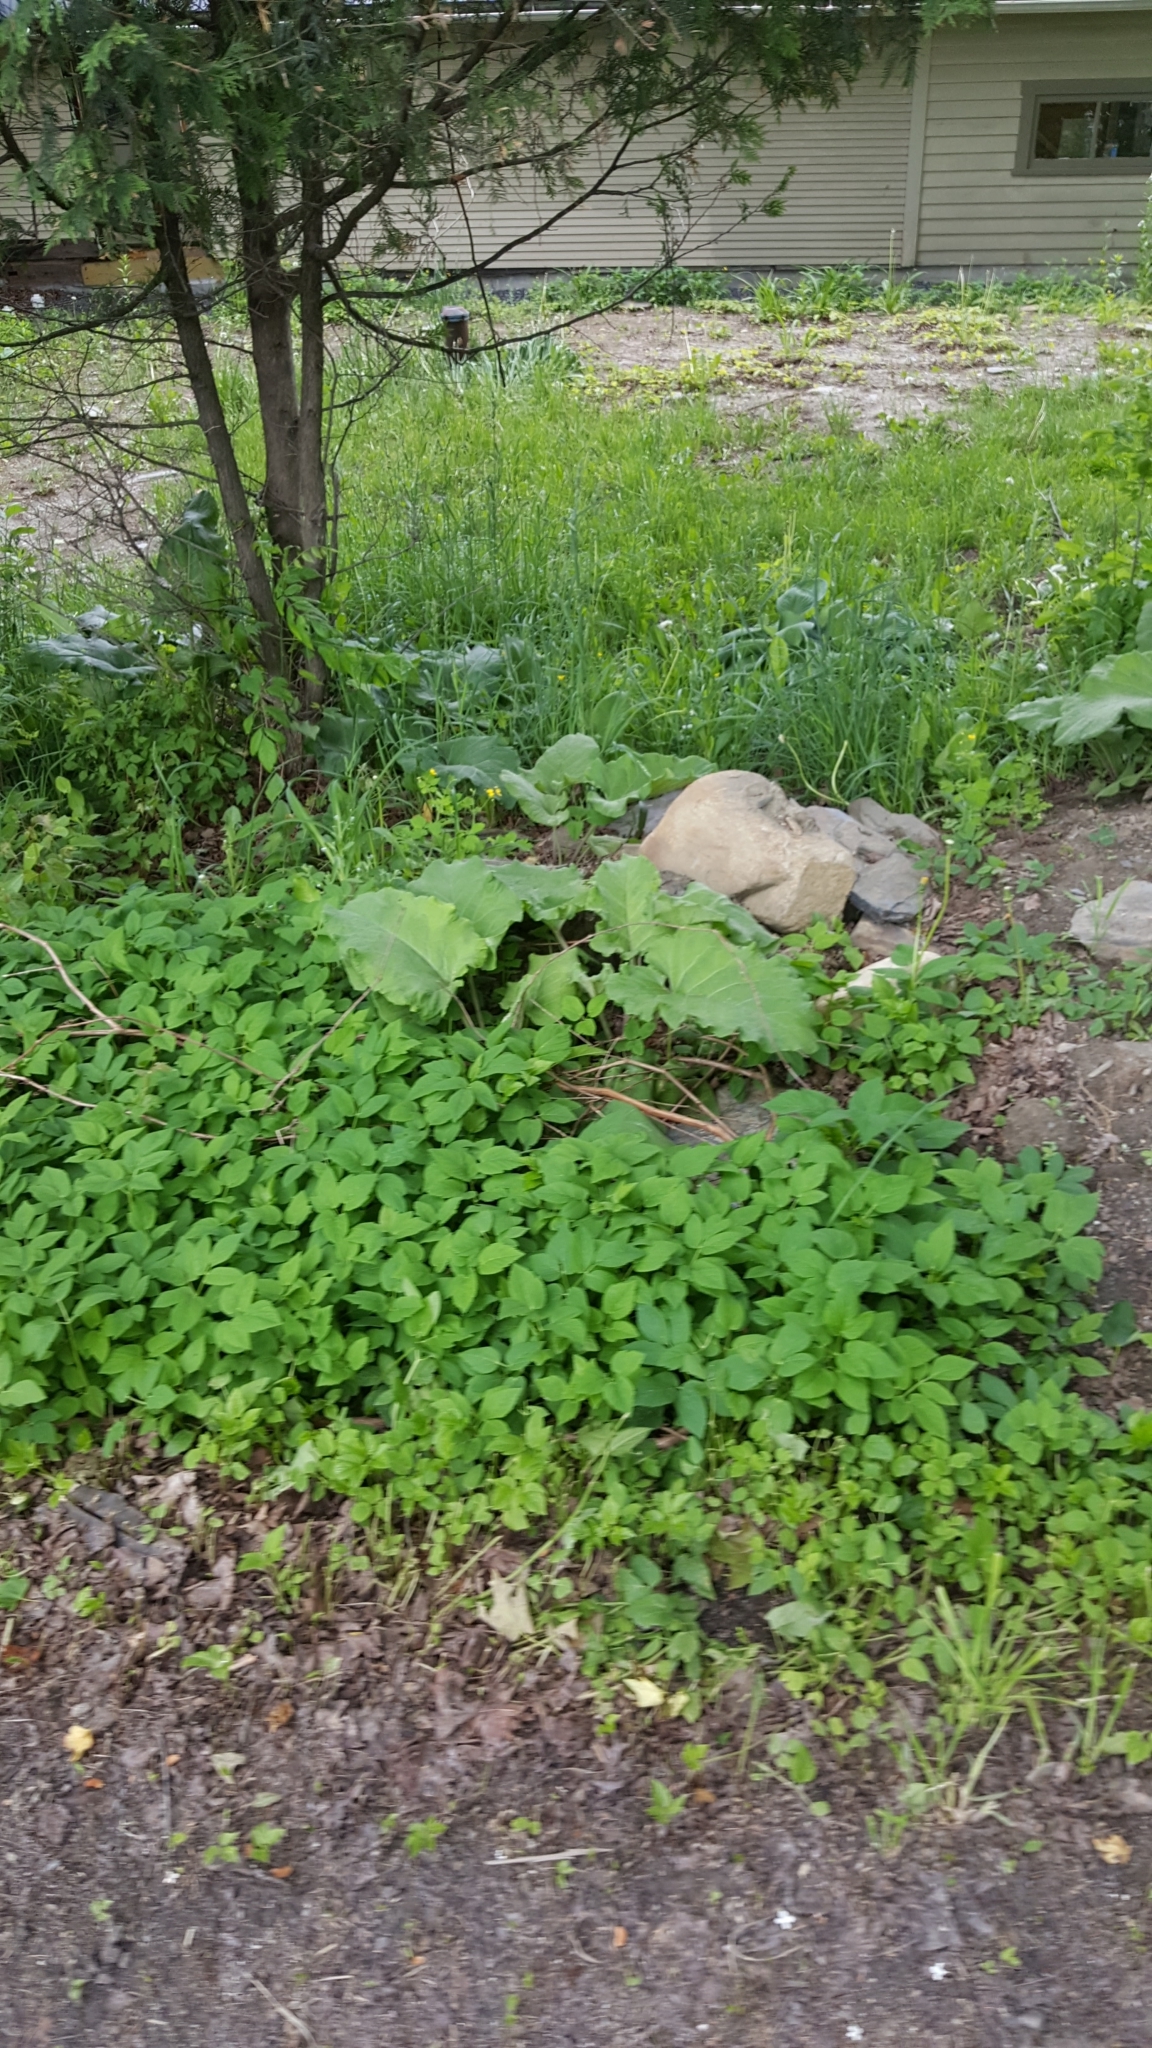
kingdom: Plantae
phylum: Tracheophyta
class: Magnoliopsida
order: Apiales
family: Apiaceae
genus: Aegopodium
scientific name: Aegopodium podagraria
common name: Ground-elder
